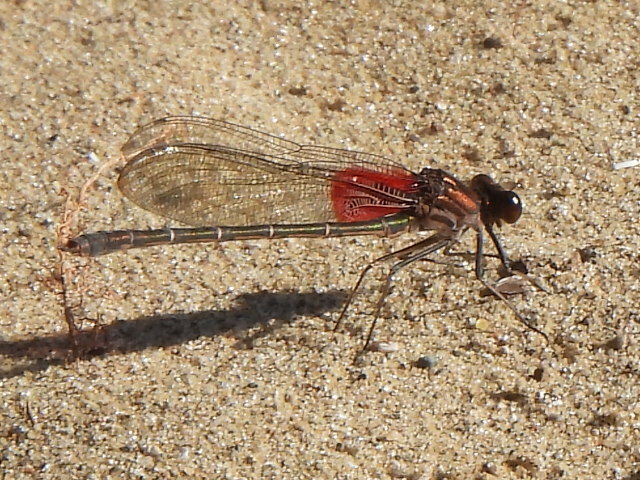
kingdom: Animalia
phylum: Arthropoda
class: Insecta
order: Odonata
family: Calopterygidae
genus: Hetaerina
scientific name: Hetaerina americana
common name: American rubyspot
